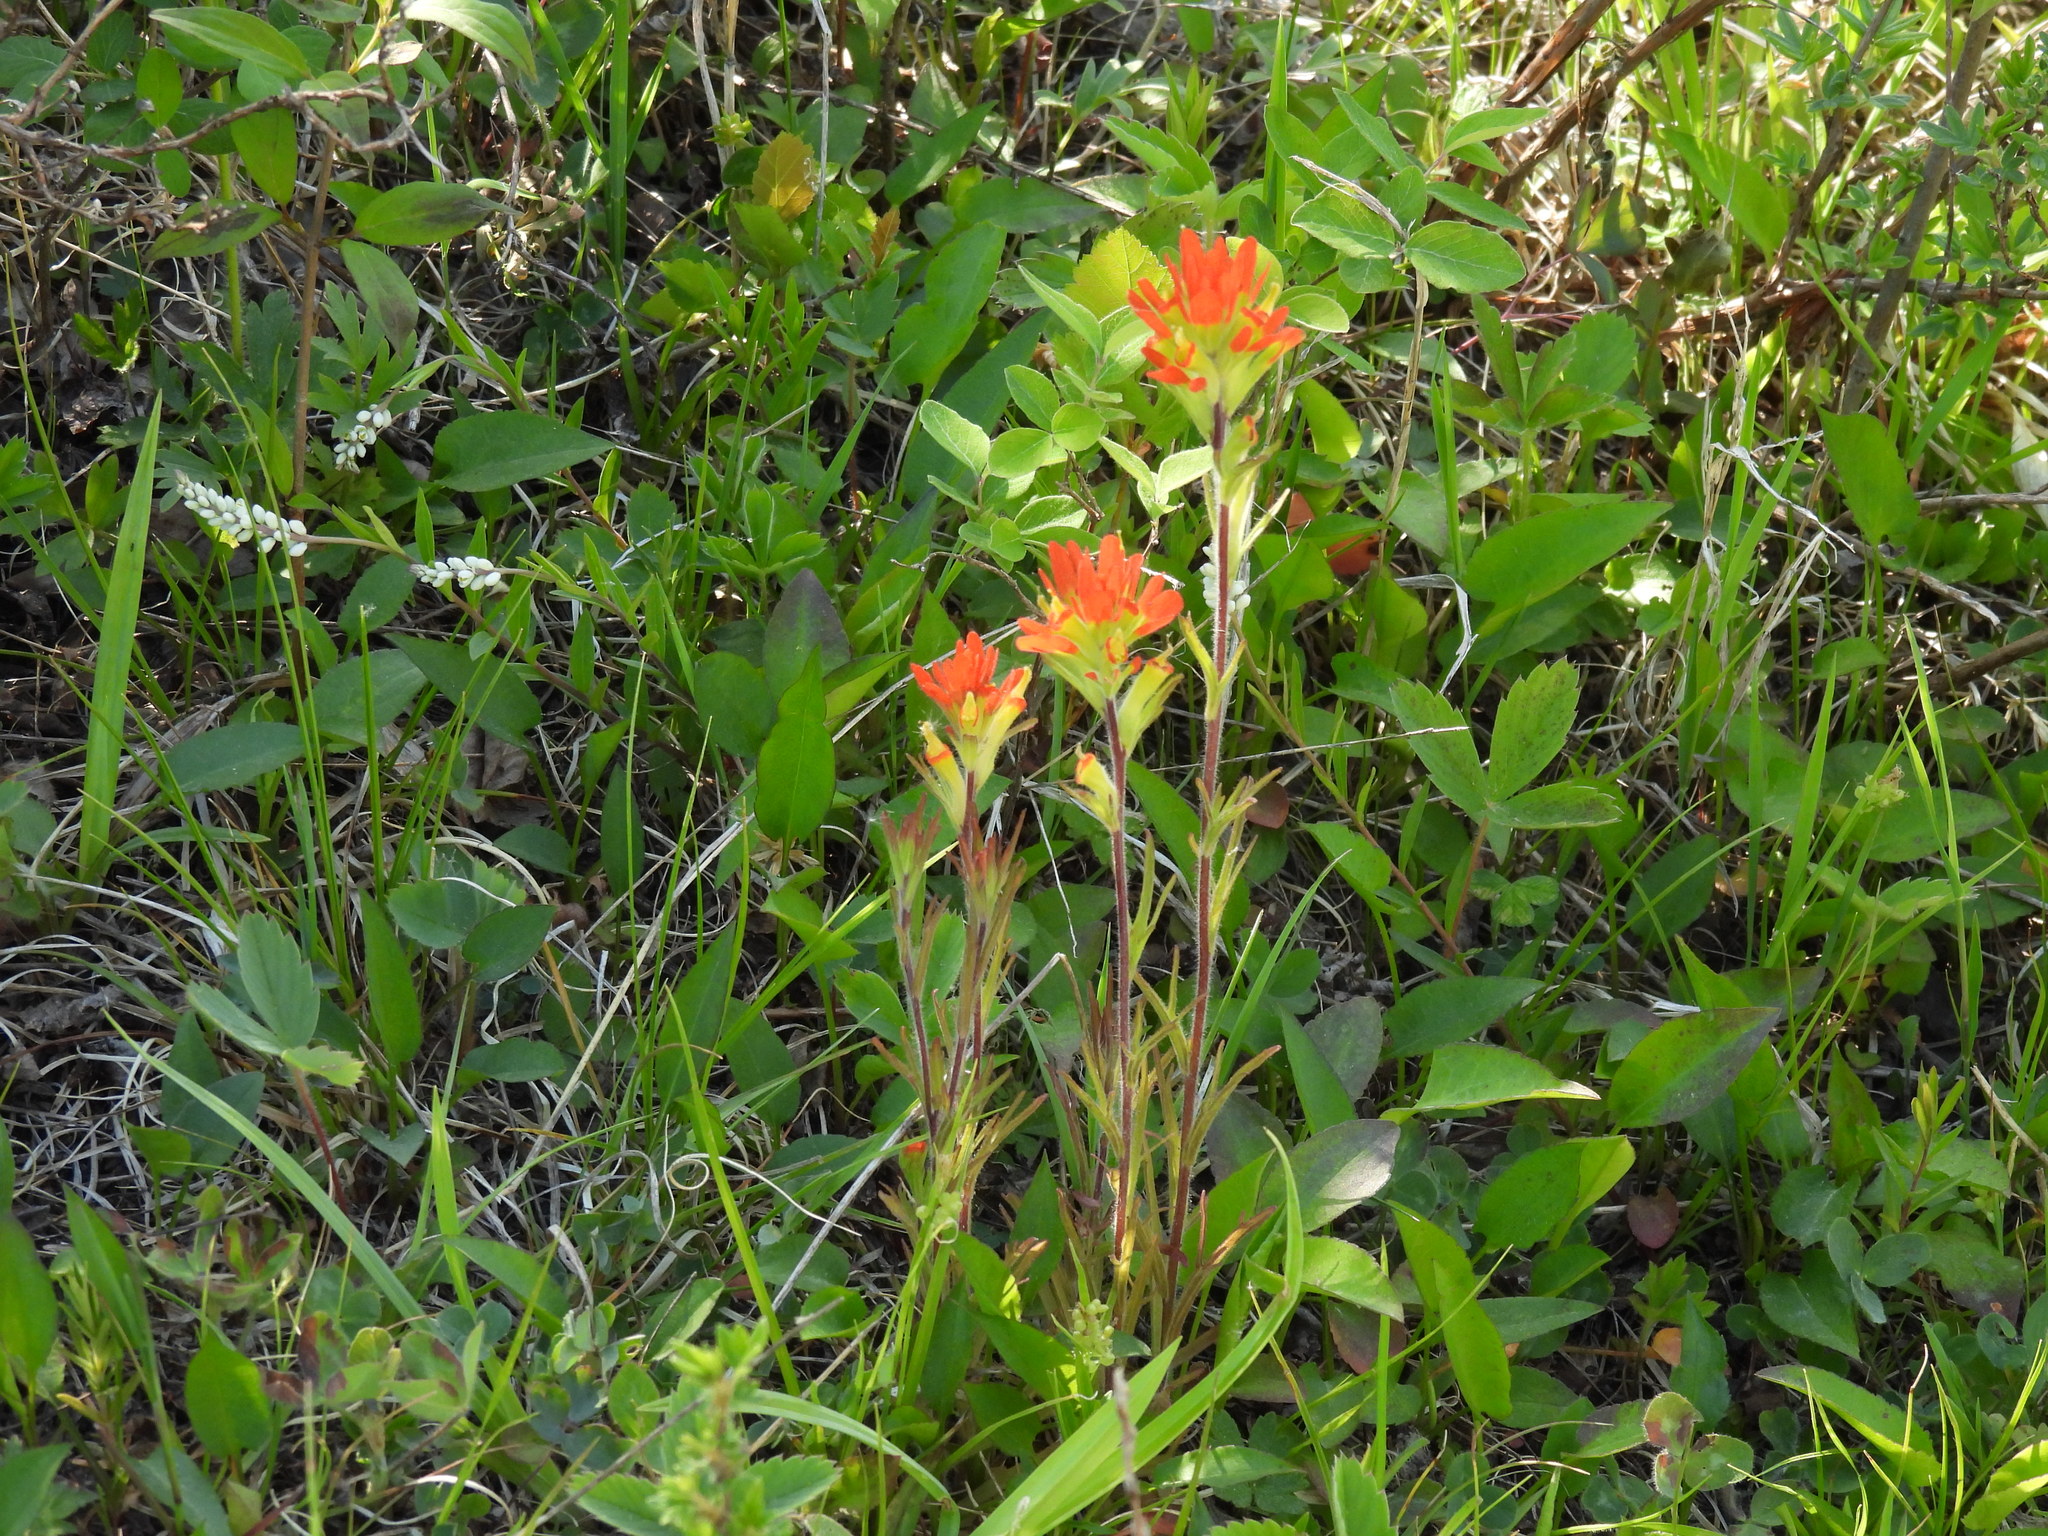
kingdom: Plantae
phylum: Tracheophyta
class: Magnoliopsida
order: Lamiales
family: Orobanchaceae
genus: Castilleja
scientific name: Castilleja coccinea
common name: Scarlet paintbrush
